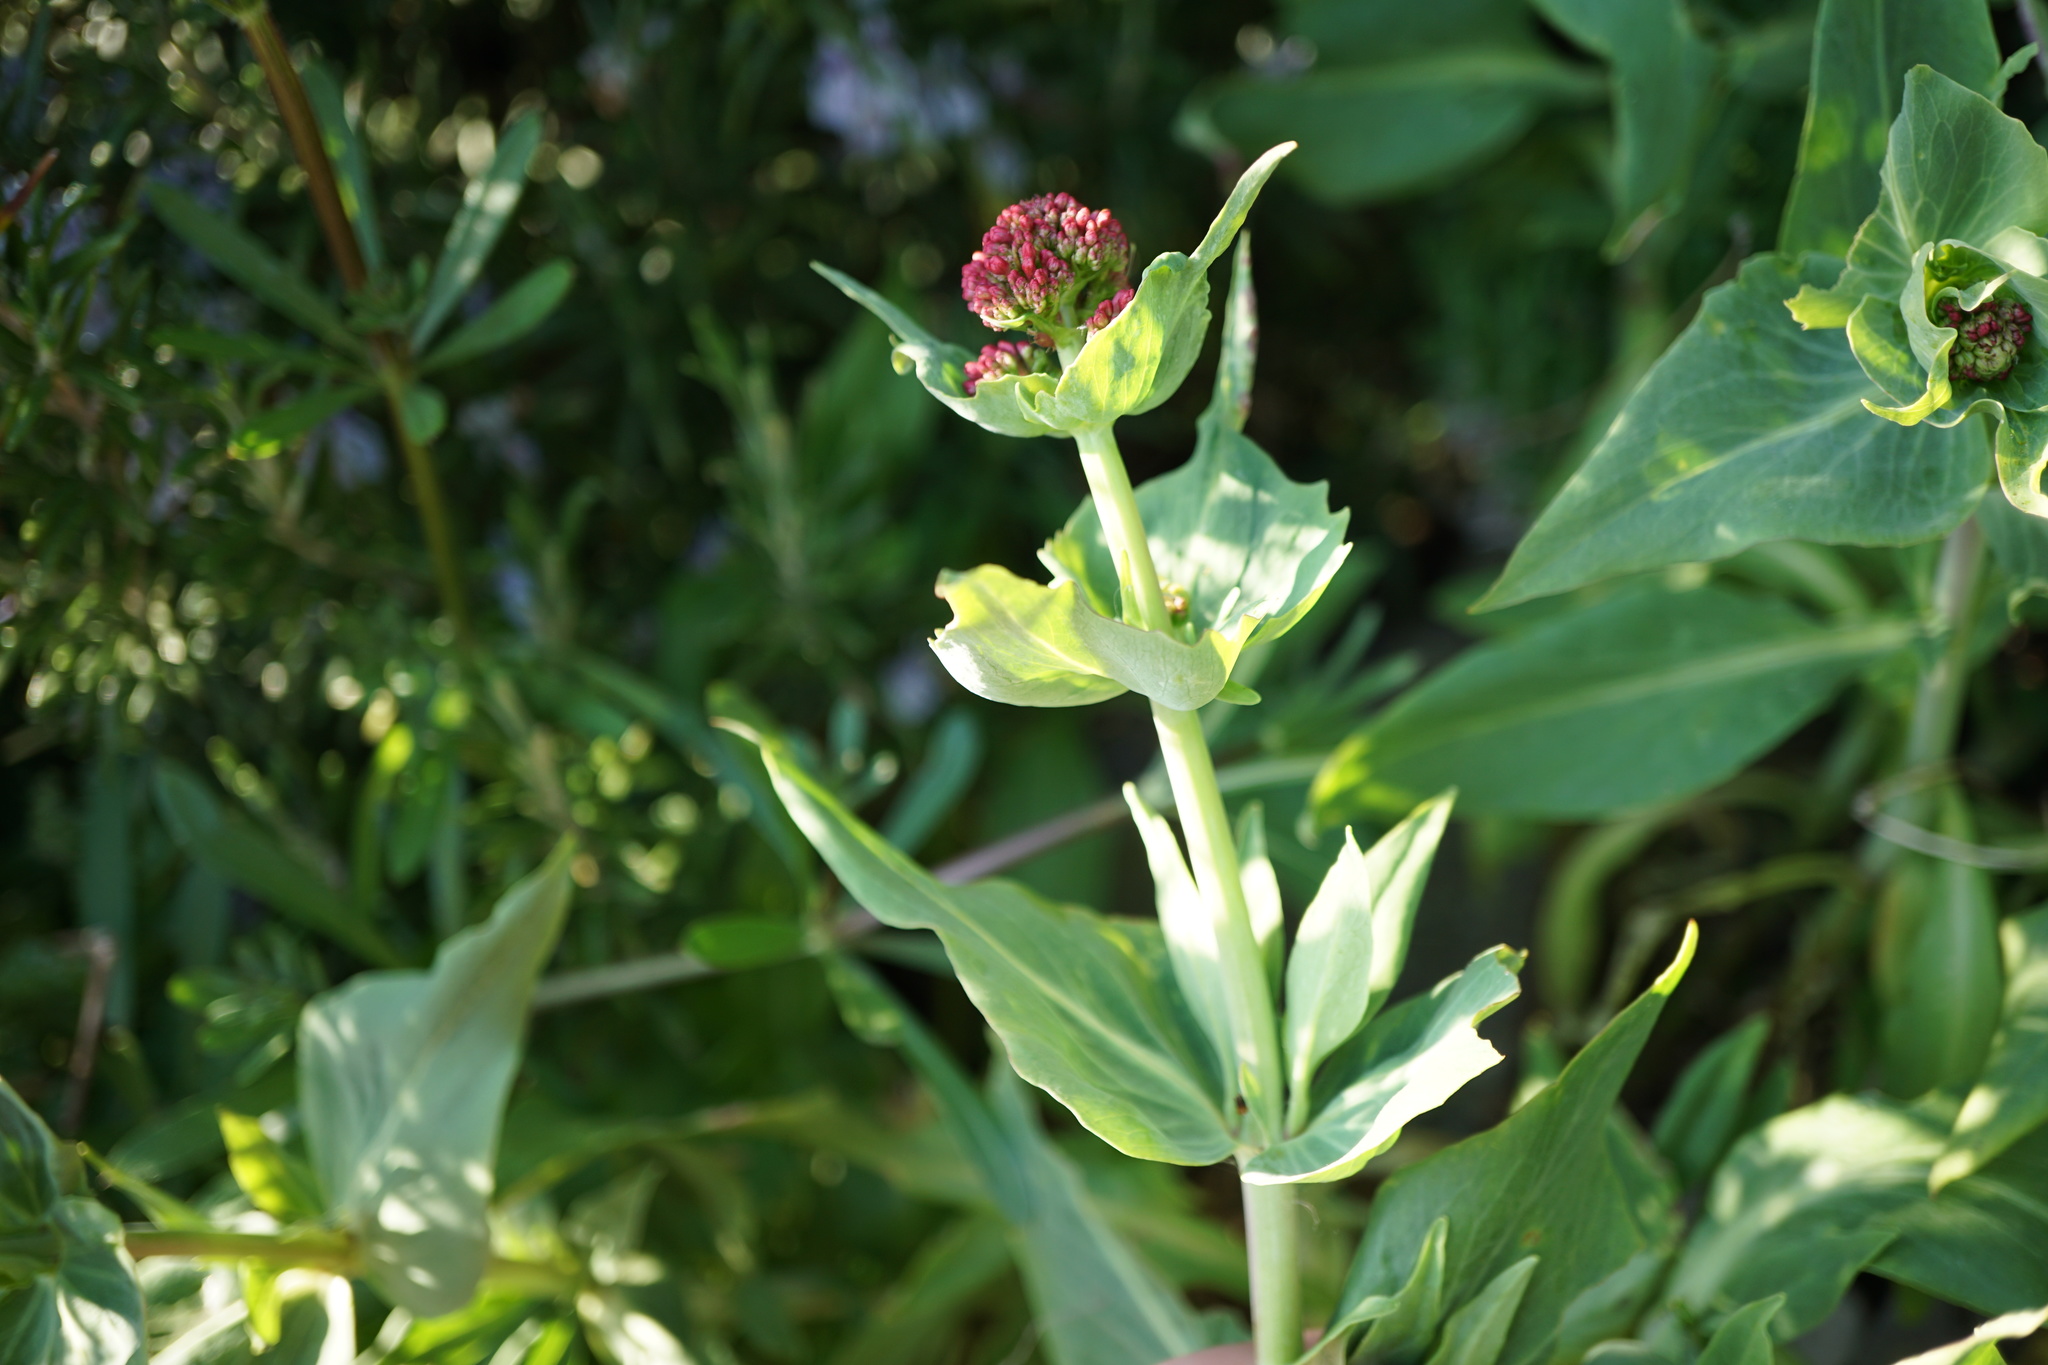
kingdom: Plantae
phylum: Tracheophyta
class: Magnoliopsida
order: Dipsacales
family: Caprifoliaceae
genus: Centranthus
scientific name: Centranthus ruber
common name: Red valerian
